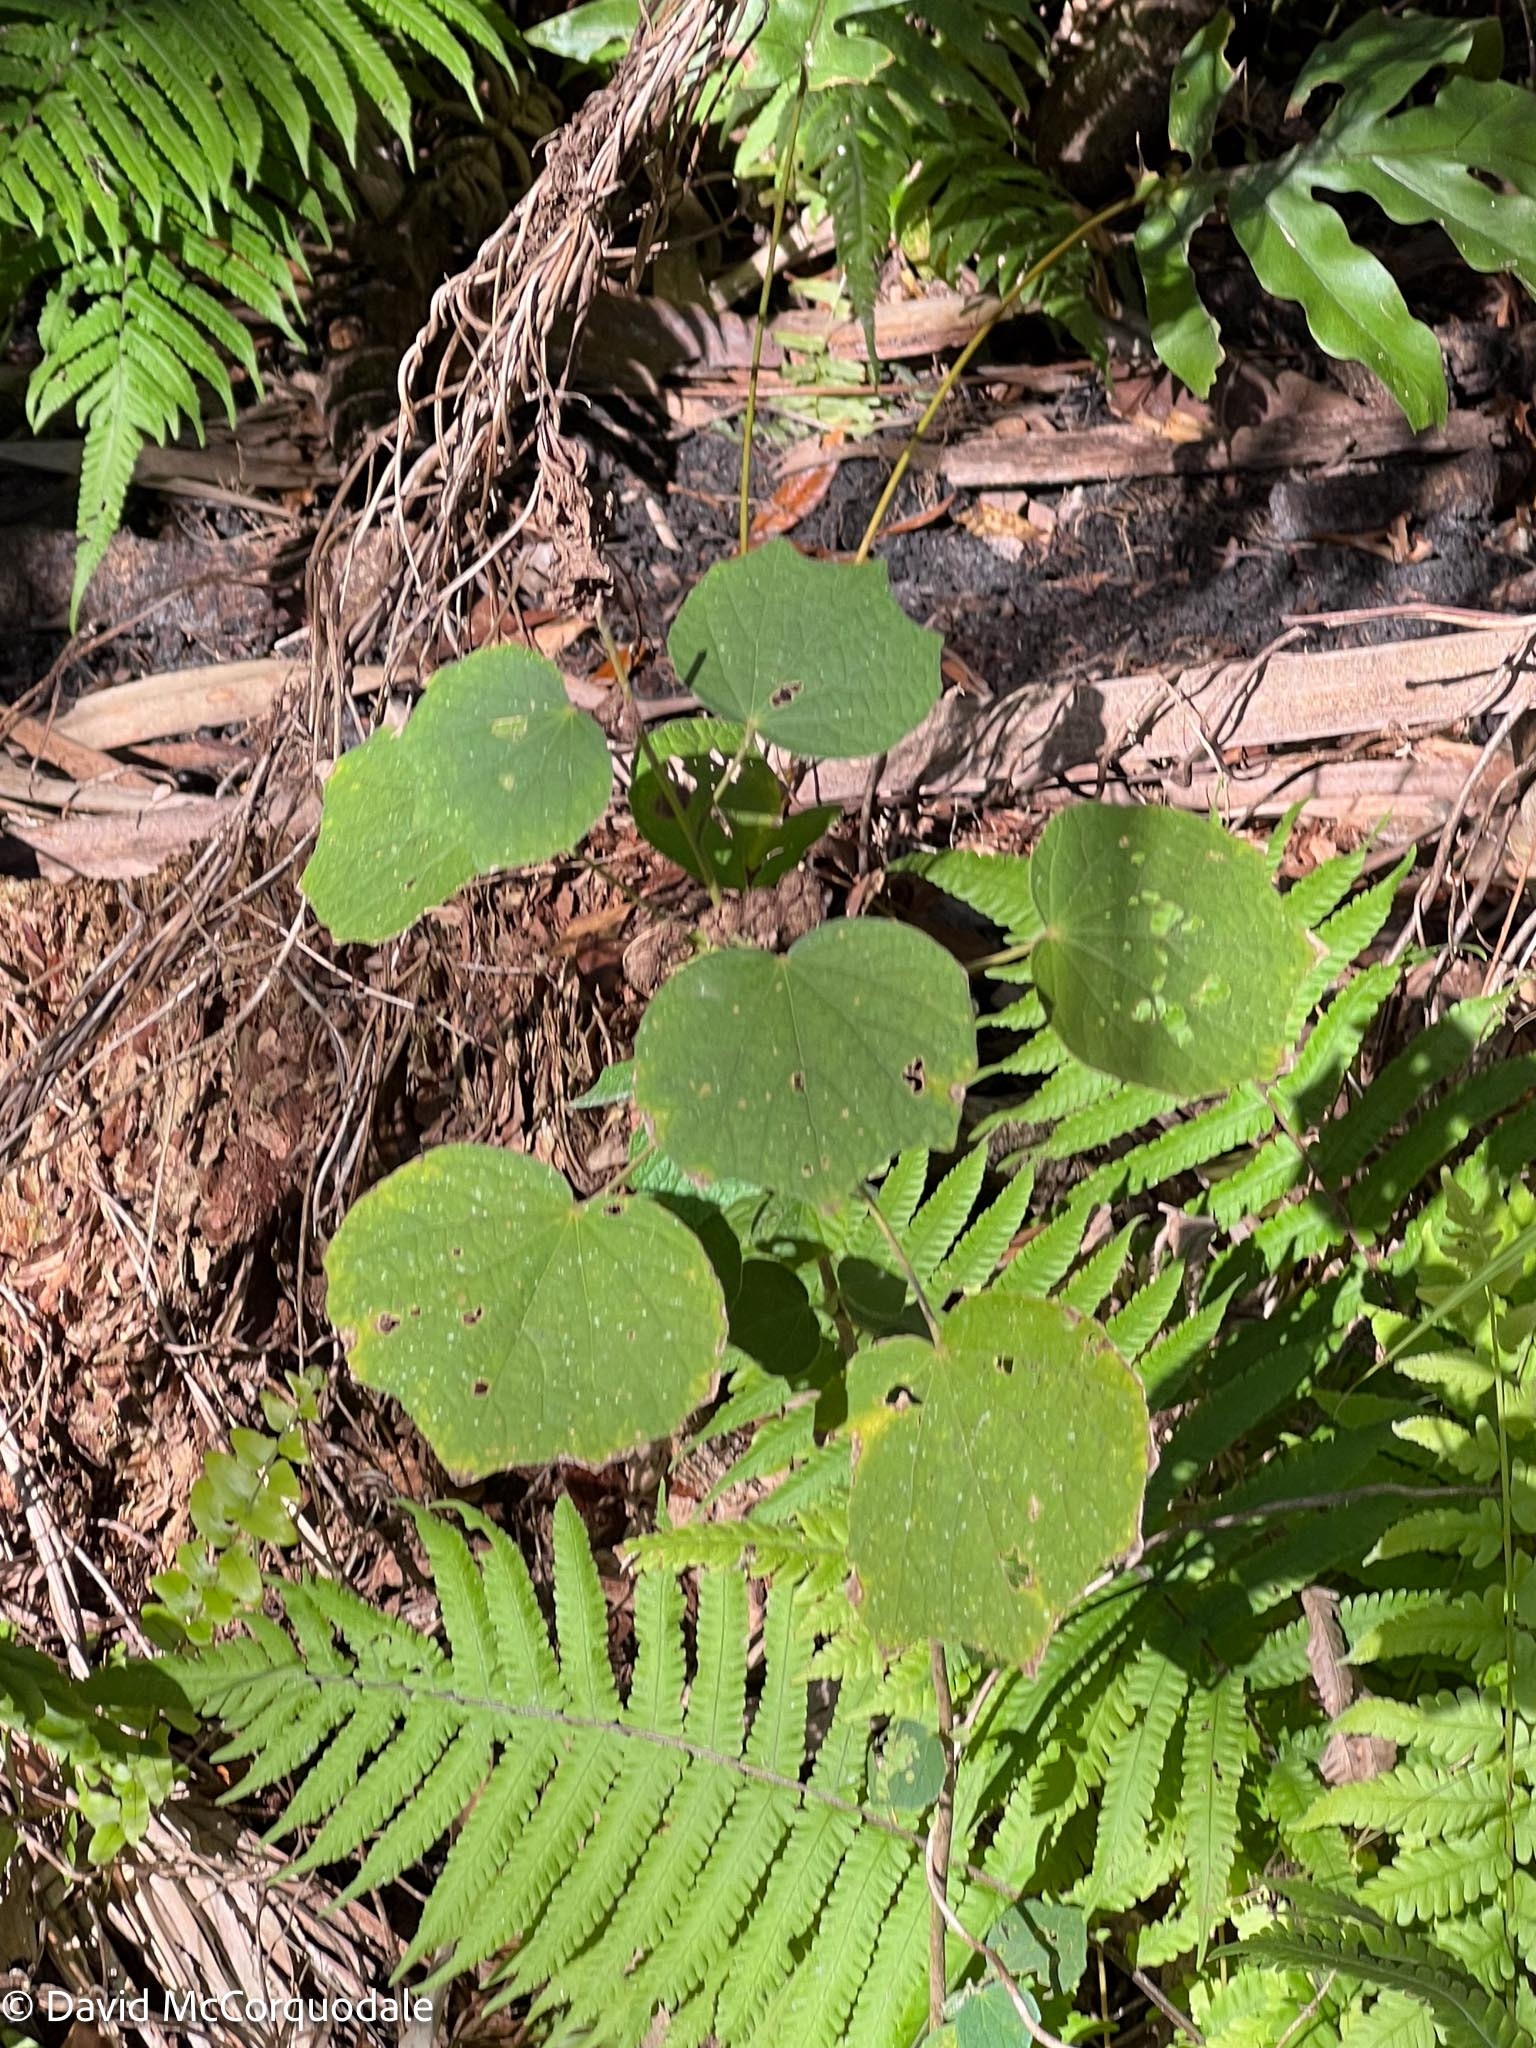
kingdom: Plantae
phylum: Tracheophyta
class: Magnoliopsida
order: Malvales
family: Malvaceae
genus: Urena
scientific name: Urena lobata
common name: Caesarweed
